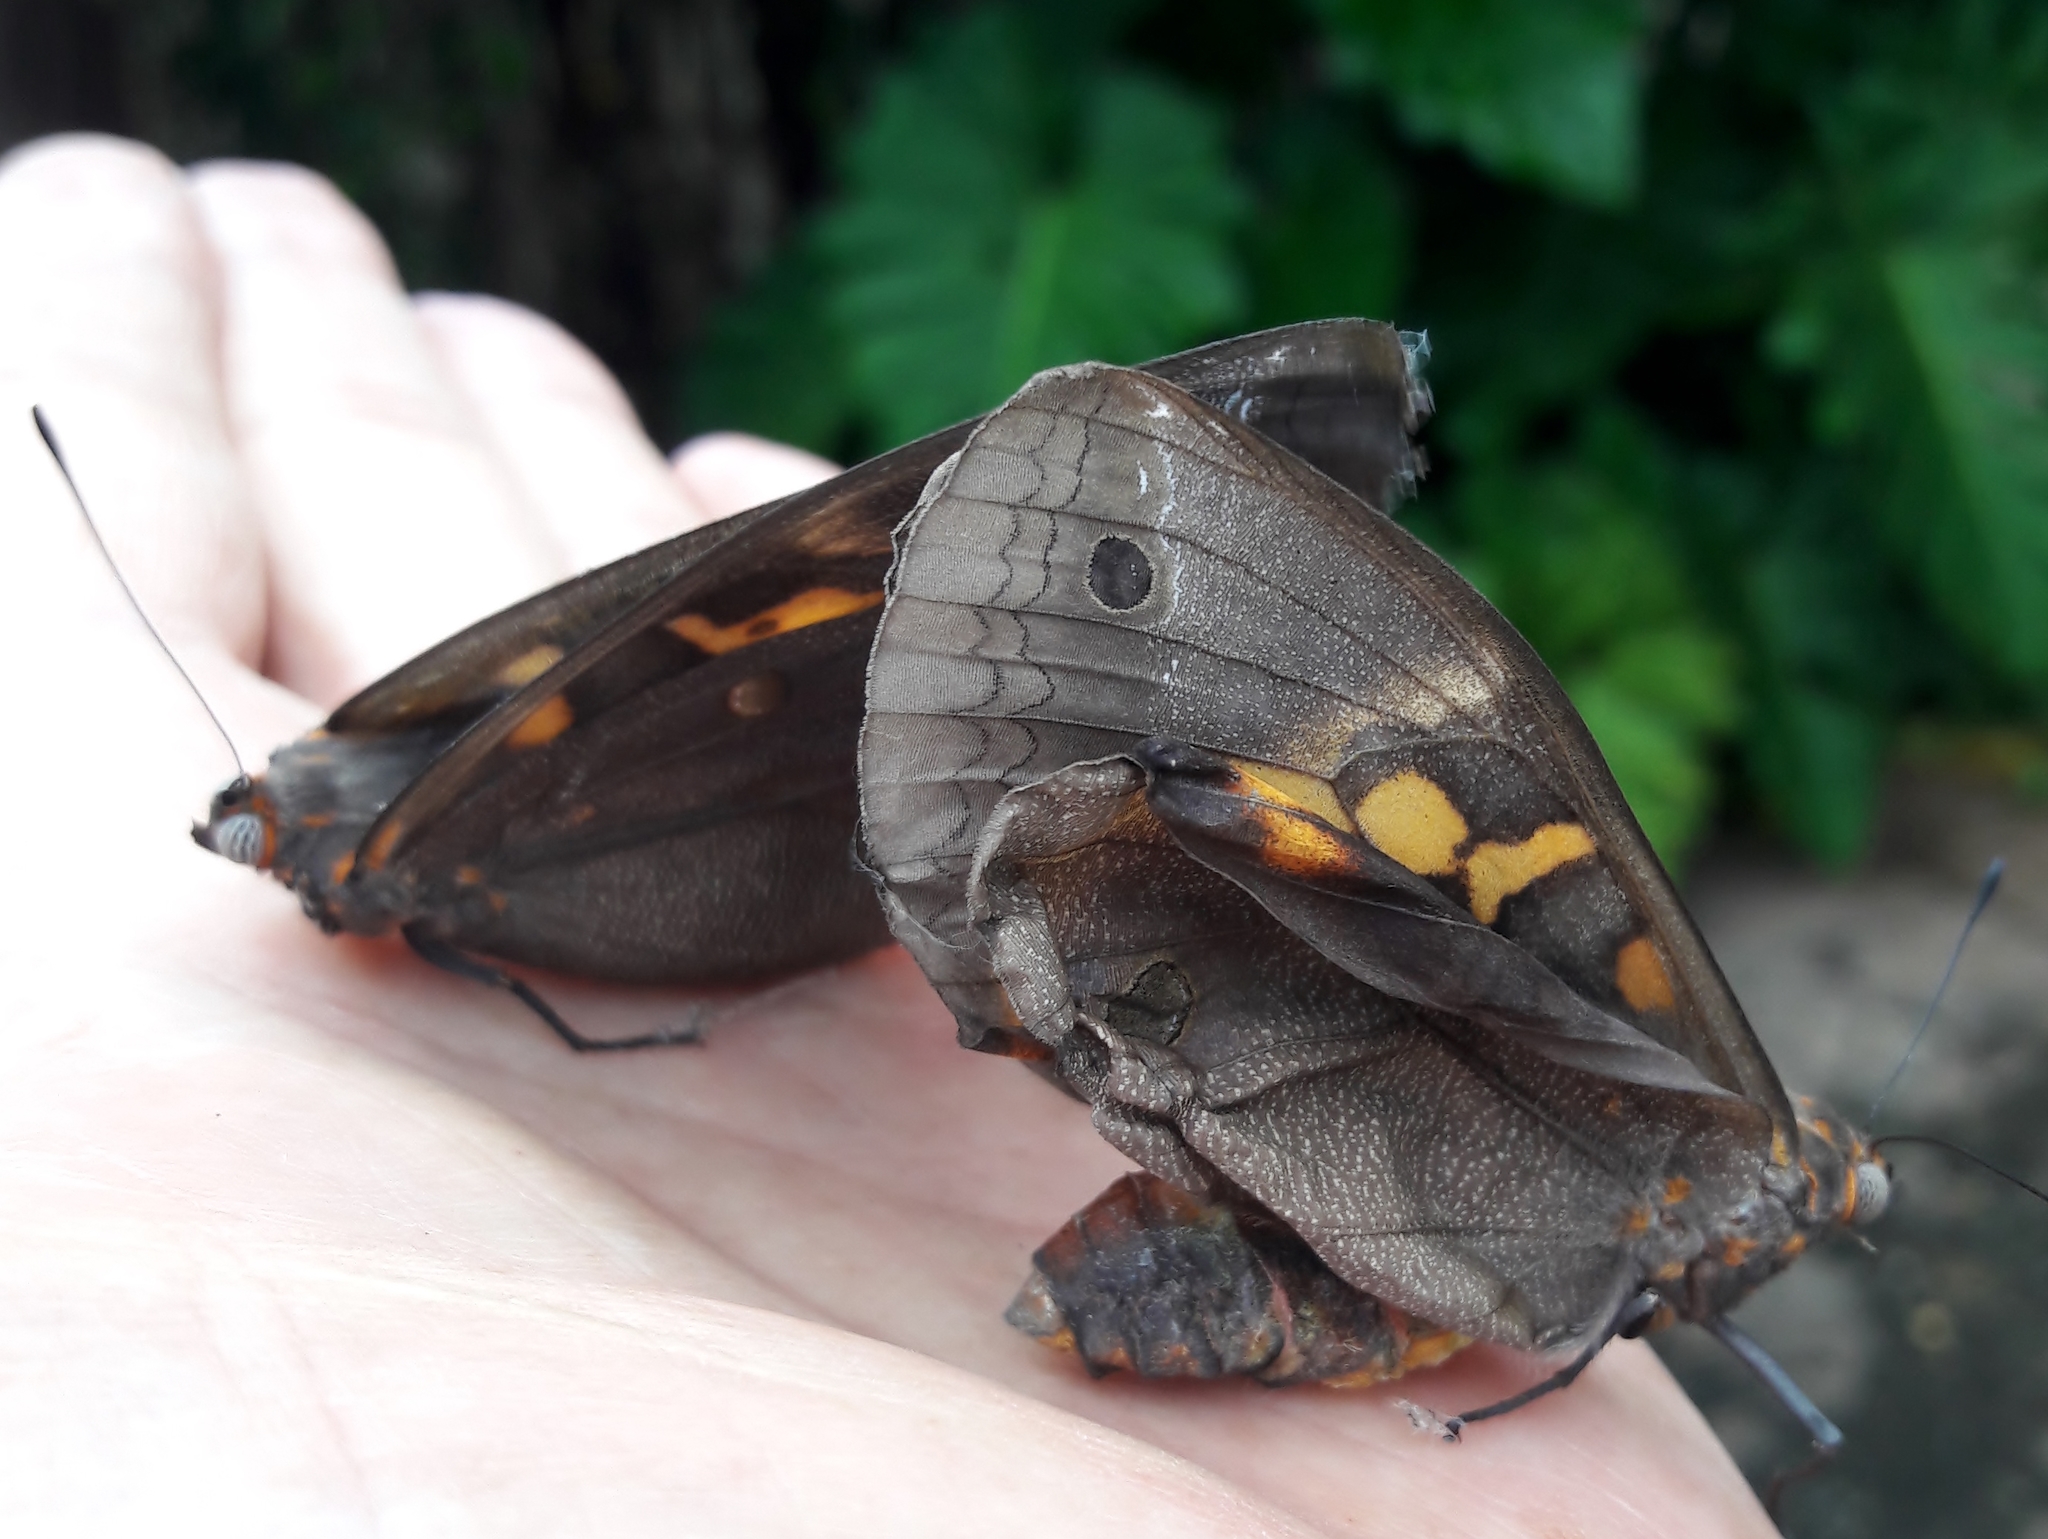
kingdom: Animalia
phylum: Arthropoda
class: Insecta
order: Lepidoptera
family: Nymphalidae
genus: Brassolis
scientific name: Brassolis sophorae
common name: Coconut caterpillar
